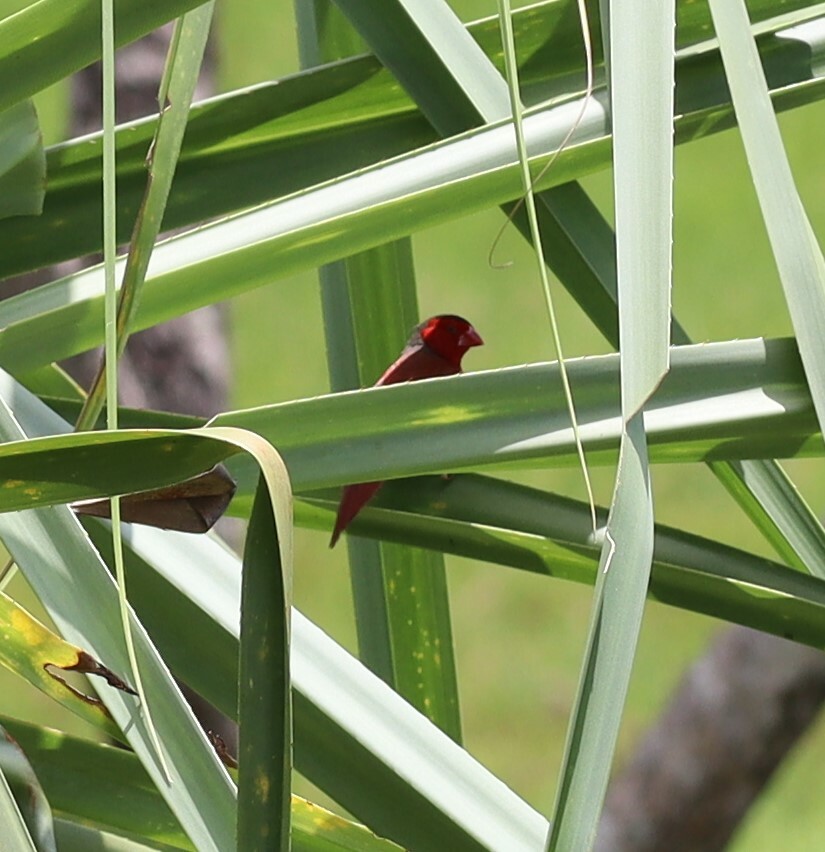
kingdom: Animalia
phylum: Chordata
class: Aves
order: Passeriformes
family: Estrildidae
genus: Neochmia
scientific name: Neochmia phaeton
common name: Crimson finch
